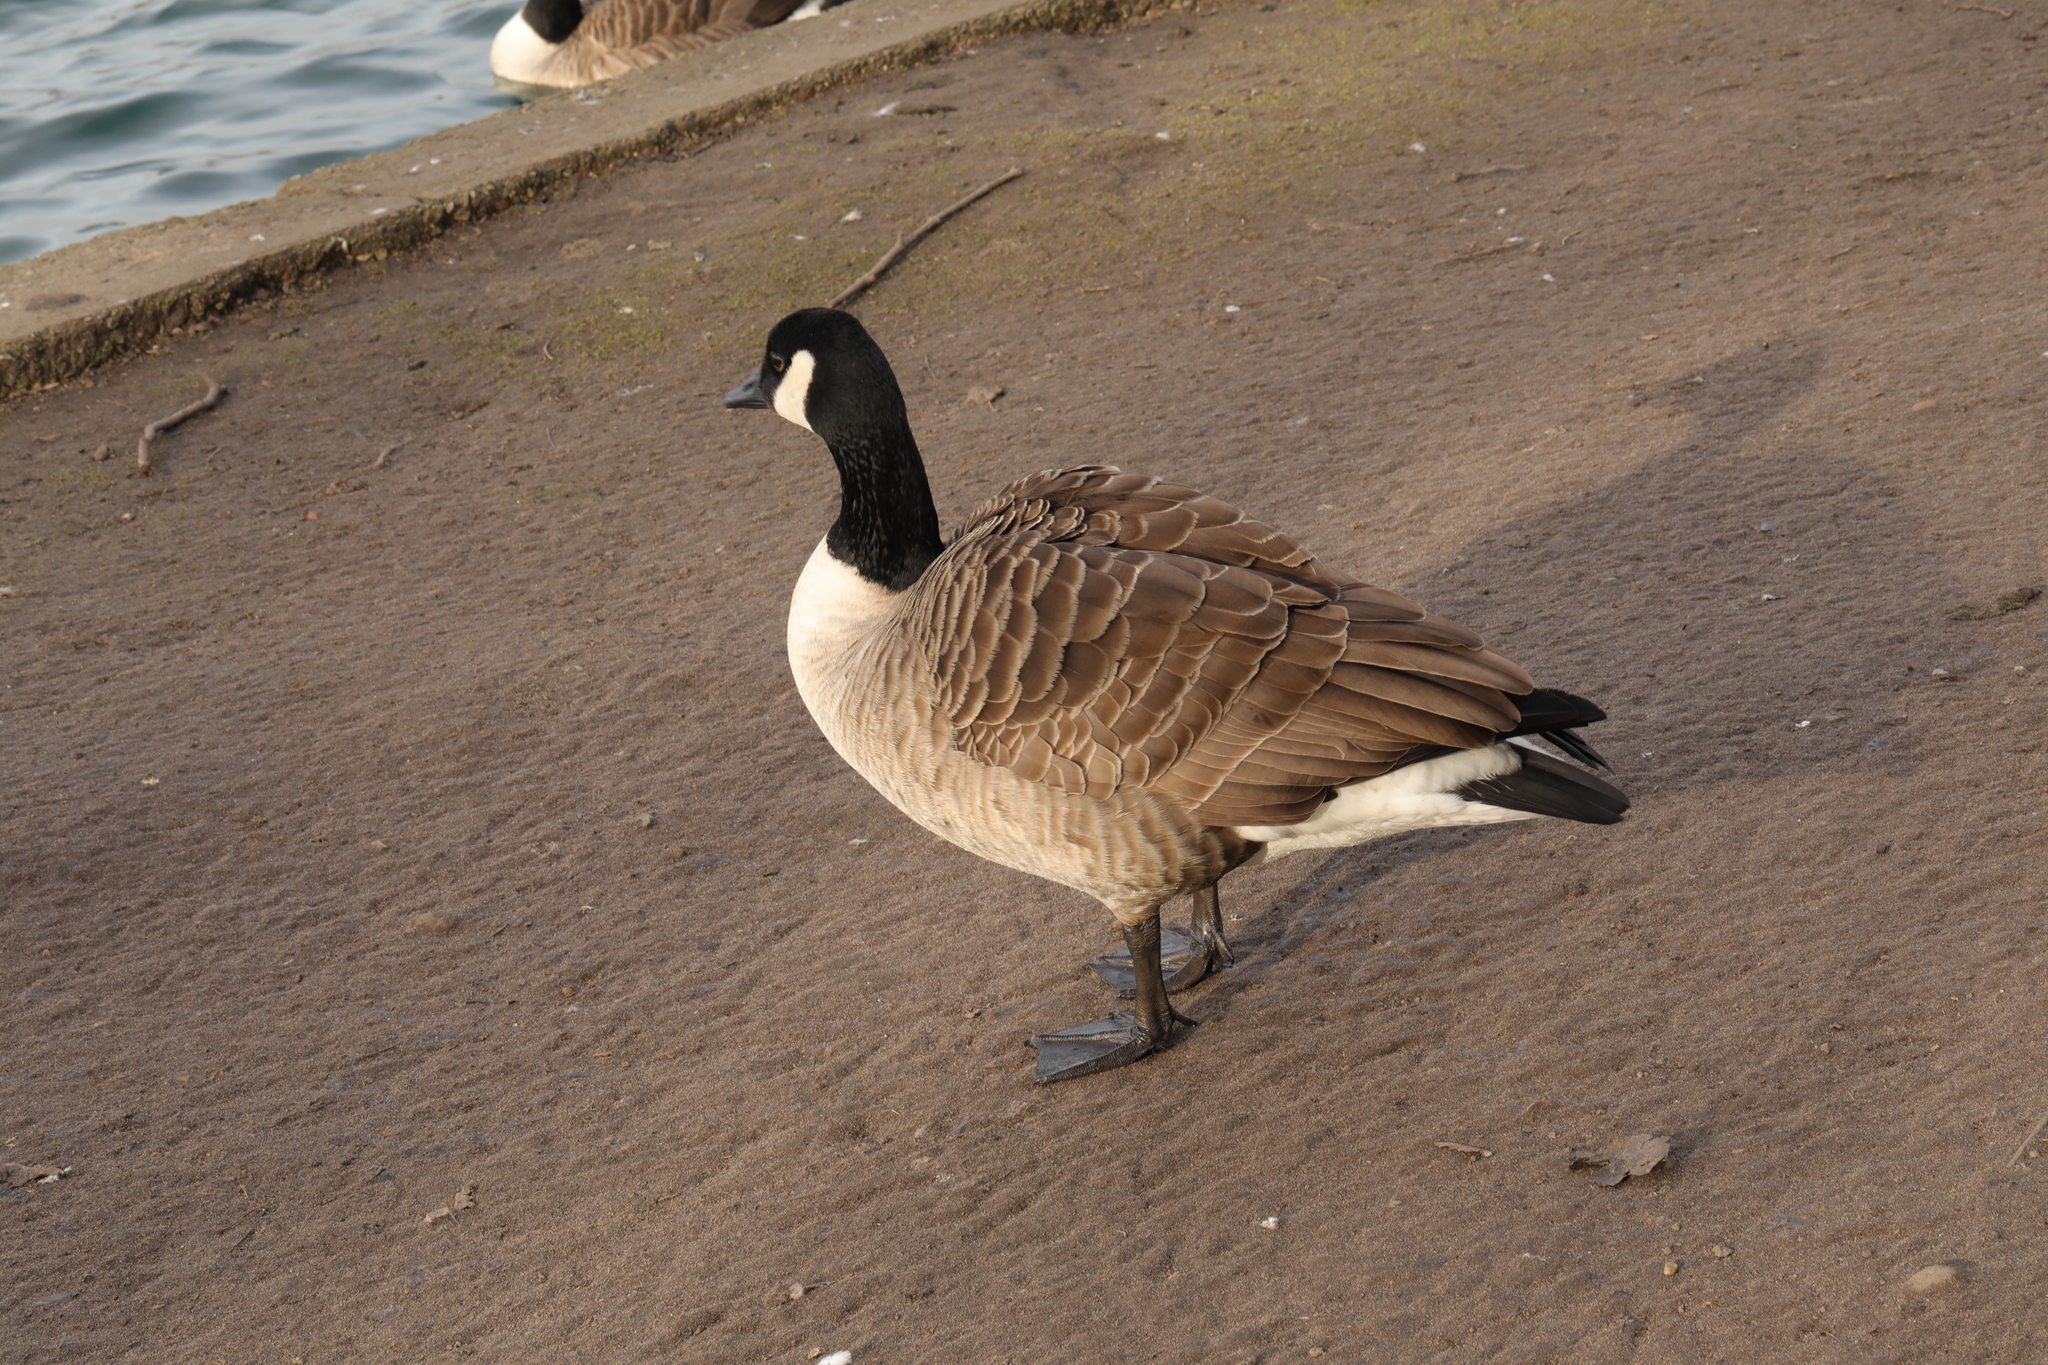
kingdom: Animalia
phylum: Chordata
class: Aves
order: Anseriformes
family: Anatidae
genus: Branta
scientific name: Branta canadensis
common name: Canada goose
